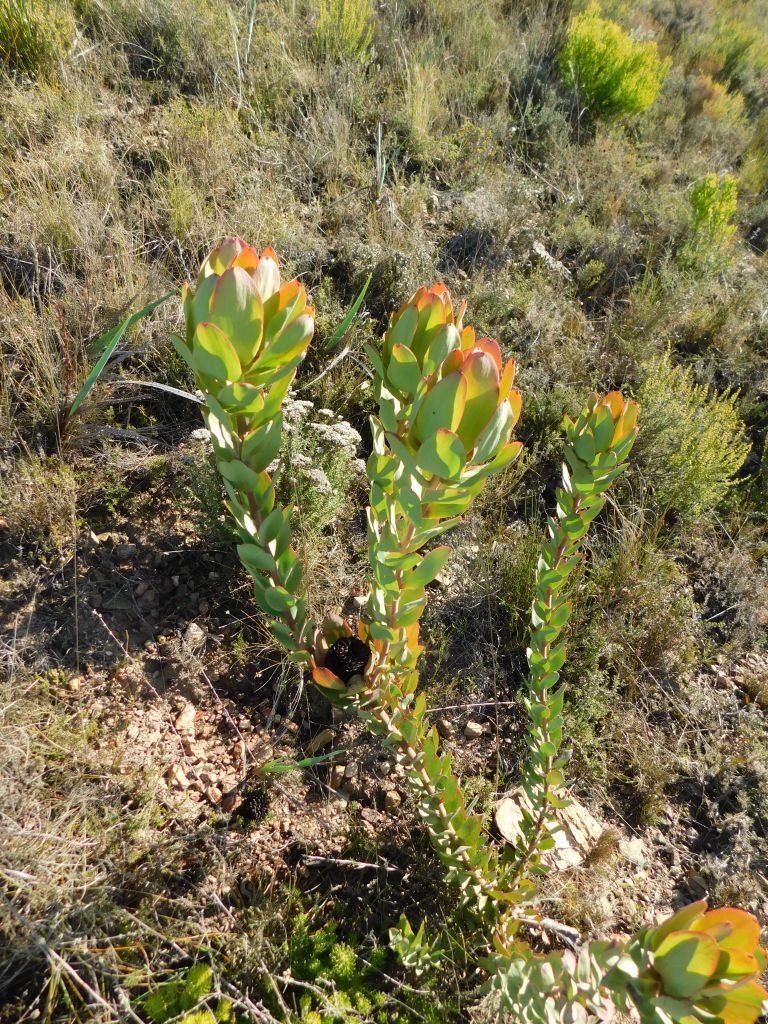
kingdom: Plantae
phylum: Tracheophyta
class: Magnoliopsida
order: Proteales
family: Proteaceae
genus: Leucadendron
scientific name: Leucadendron elimense
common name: Elim conebush
